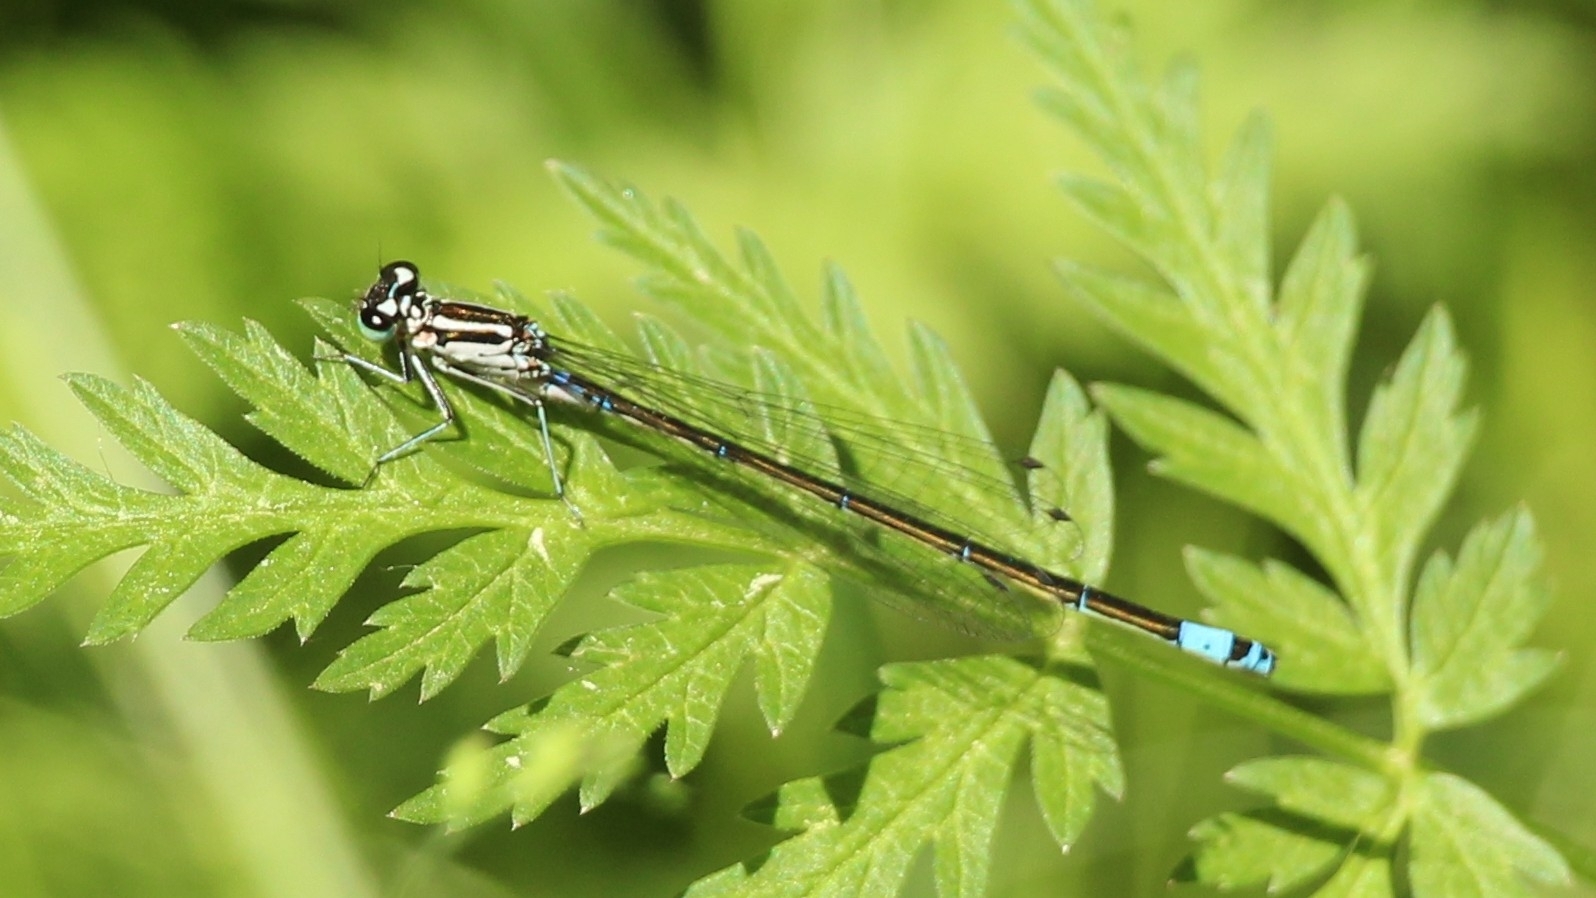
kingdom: Animalia
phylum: Arthropoda
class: Insecta
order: Odonata
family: Coenagrionidae
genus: Coenagrion
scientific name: Coenagrion pulchellum
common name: Variable bluet
